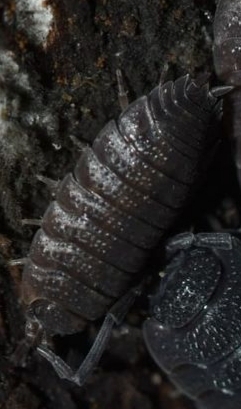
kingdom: Animalia
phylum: Arthropoda
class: Malacostraca
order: Isopoda
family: Porcellionidae
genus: Porcellio
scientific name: Porcellio scaber
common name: Common rough woodlouse
